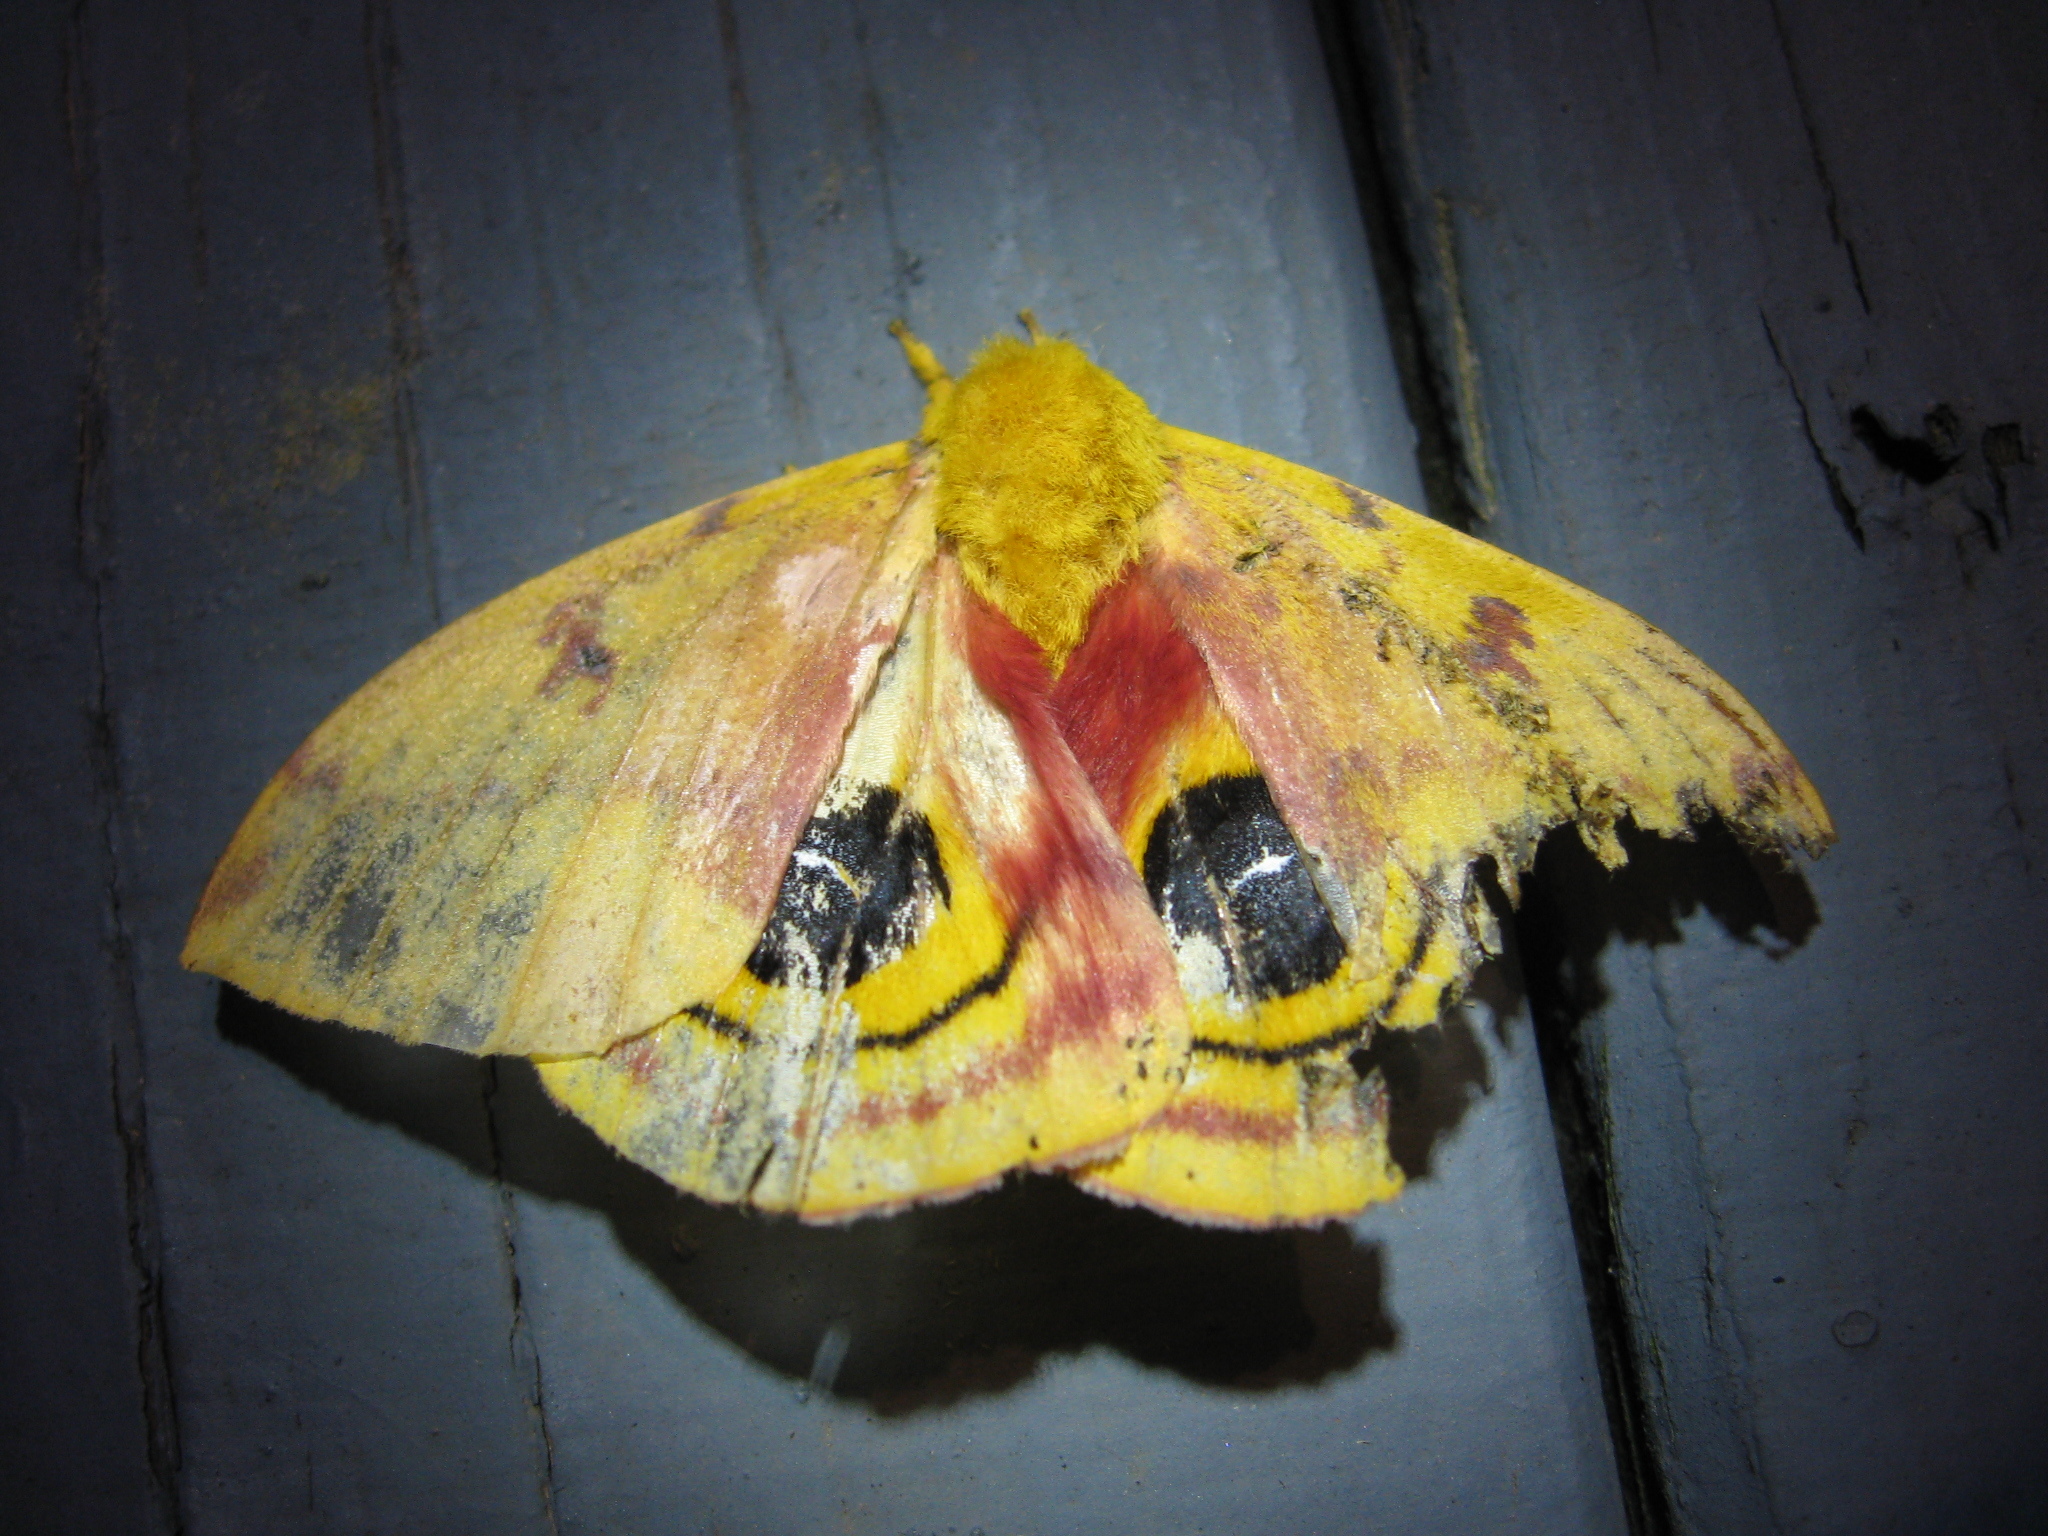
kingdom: Animalia
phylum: Arthropoda
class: Insecta
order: Lepidoptera
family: Saturniidae
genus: Automeris
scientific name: Automeris io
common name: Io moth
